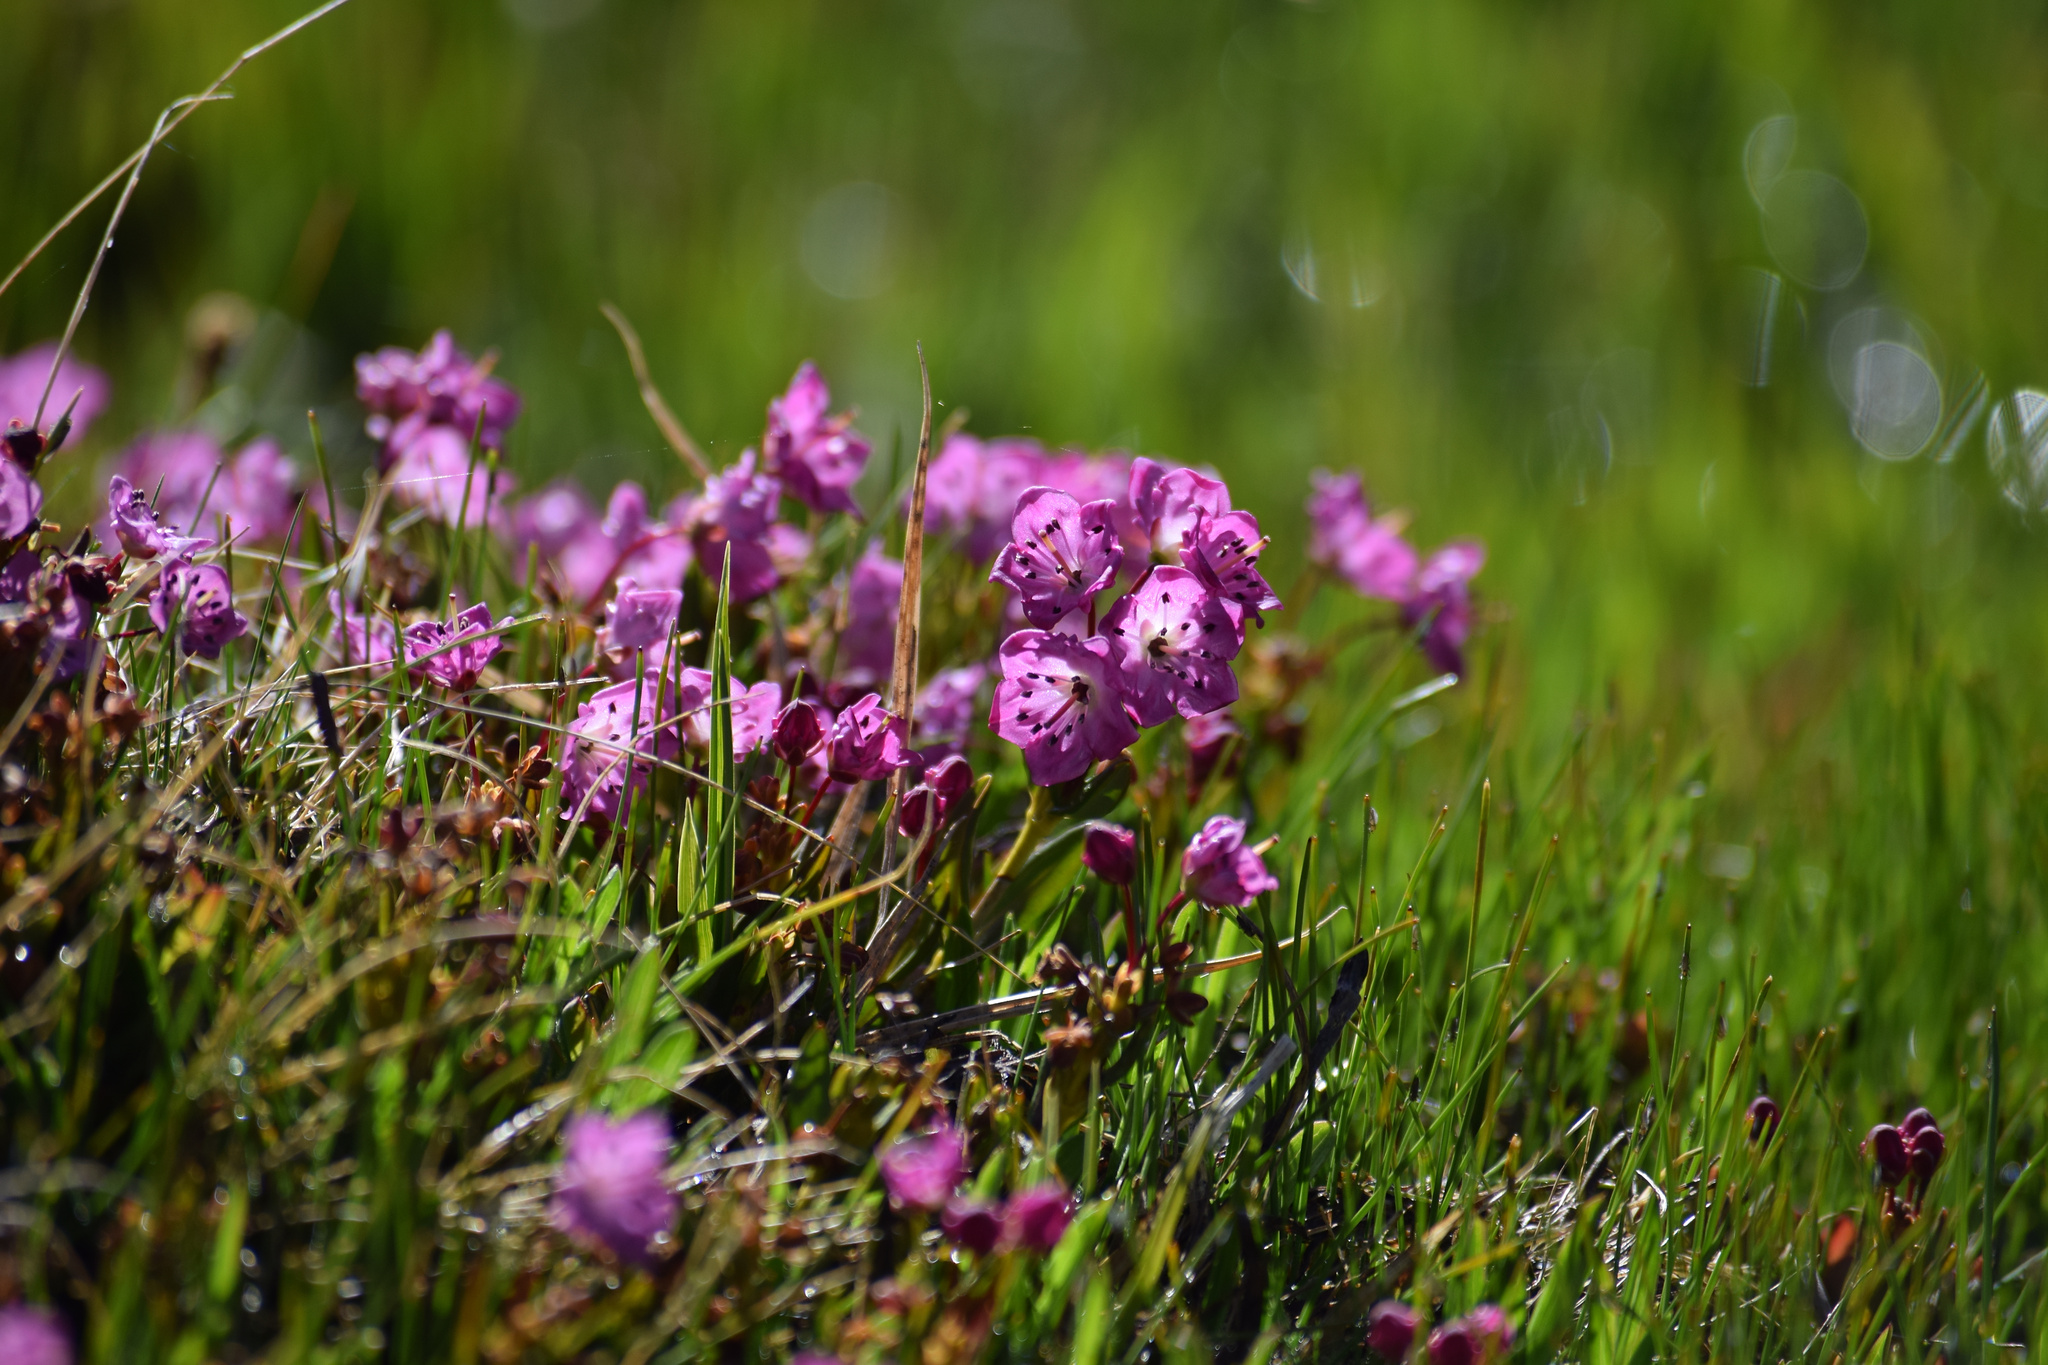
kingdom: Plantae
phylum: Tracheophyta
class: Magnoliopsida
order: Ericales
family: Ericaceae
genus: Kalmia
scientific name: Kalmia microphylla
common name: Alpine bog laurel
